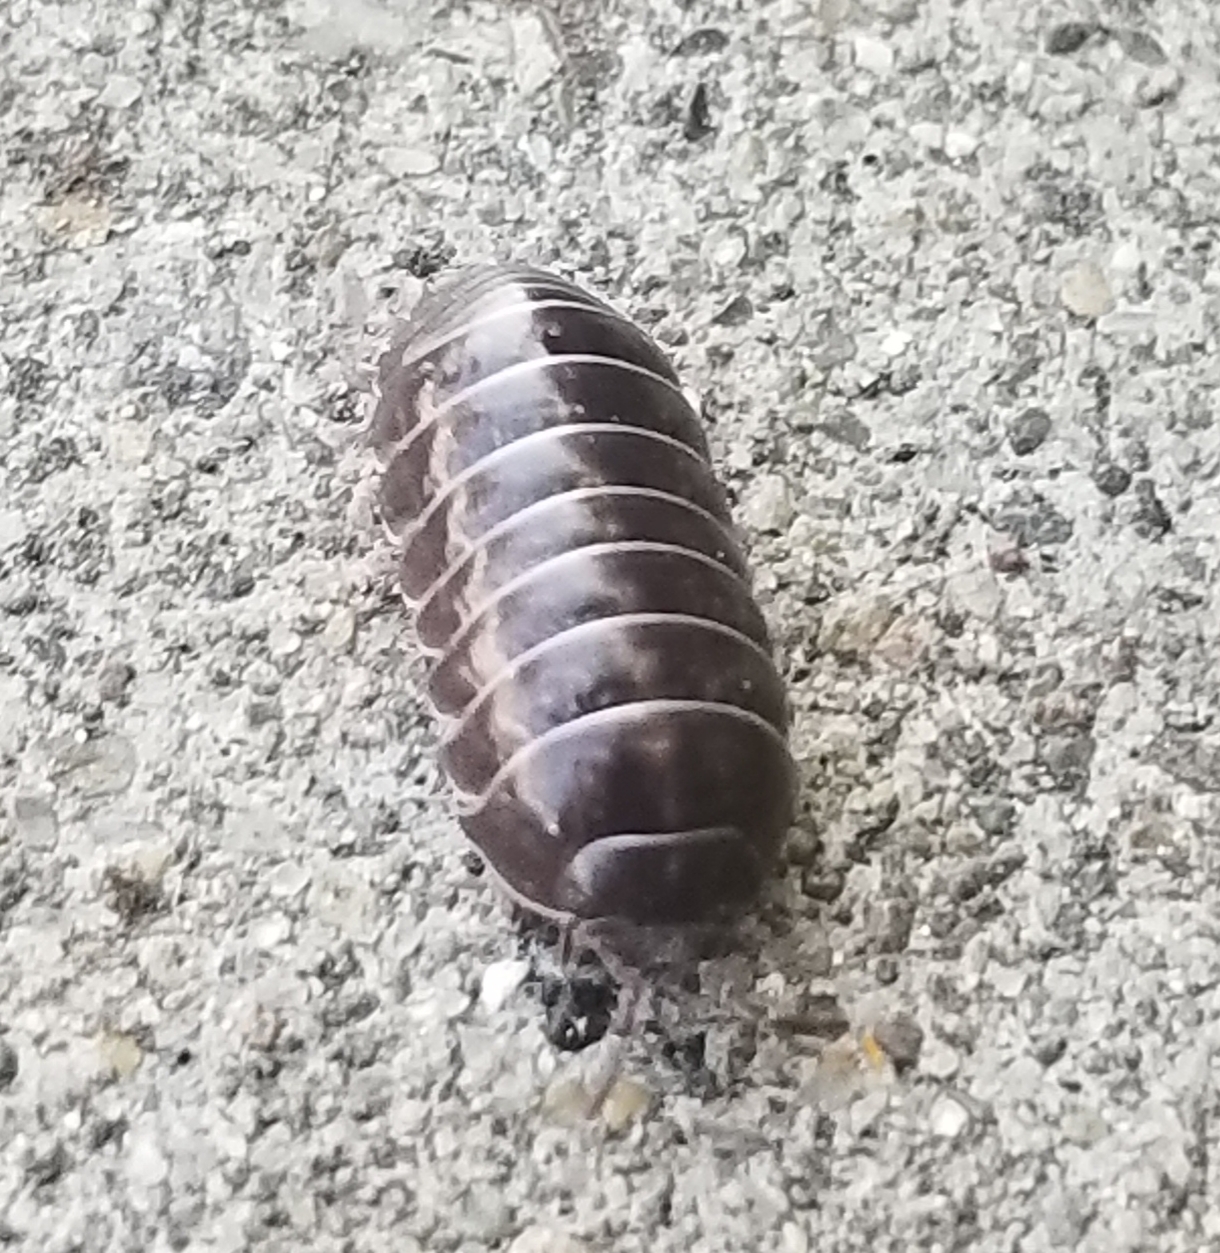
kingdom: Animalia
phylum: Arthropoda
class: Malacostraca
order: Isopoda
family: Armadillidiidae
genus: Armadillidium
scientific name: Armadillidium vulgare
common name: Common pill woodlouse
